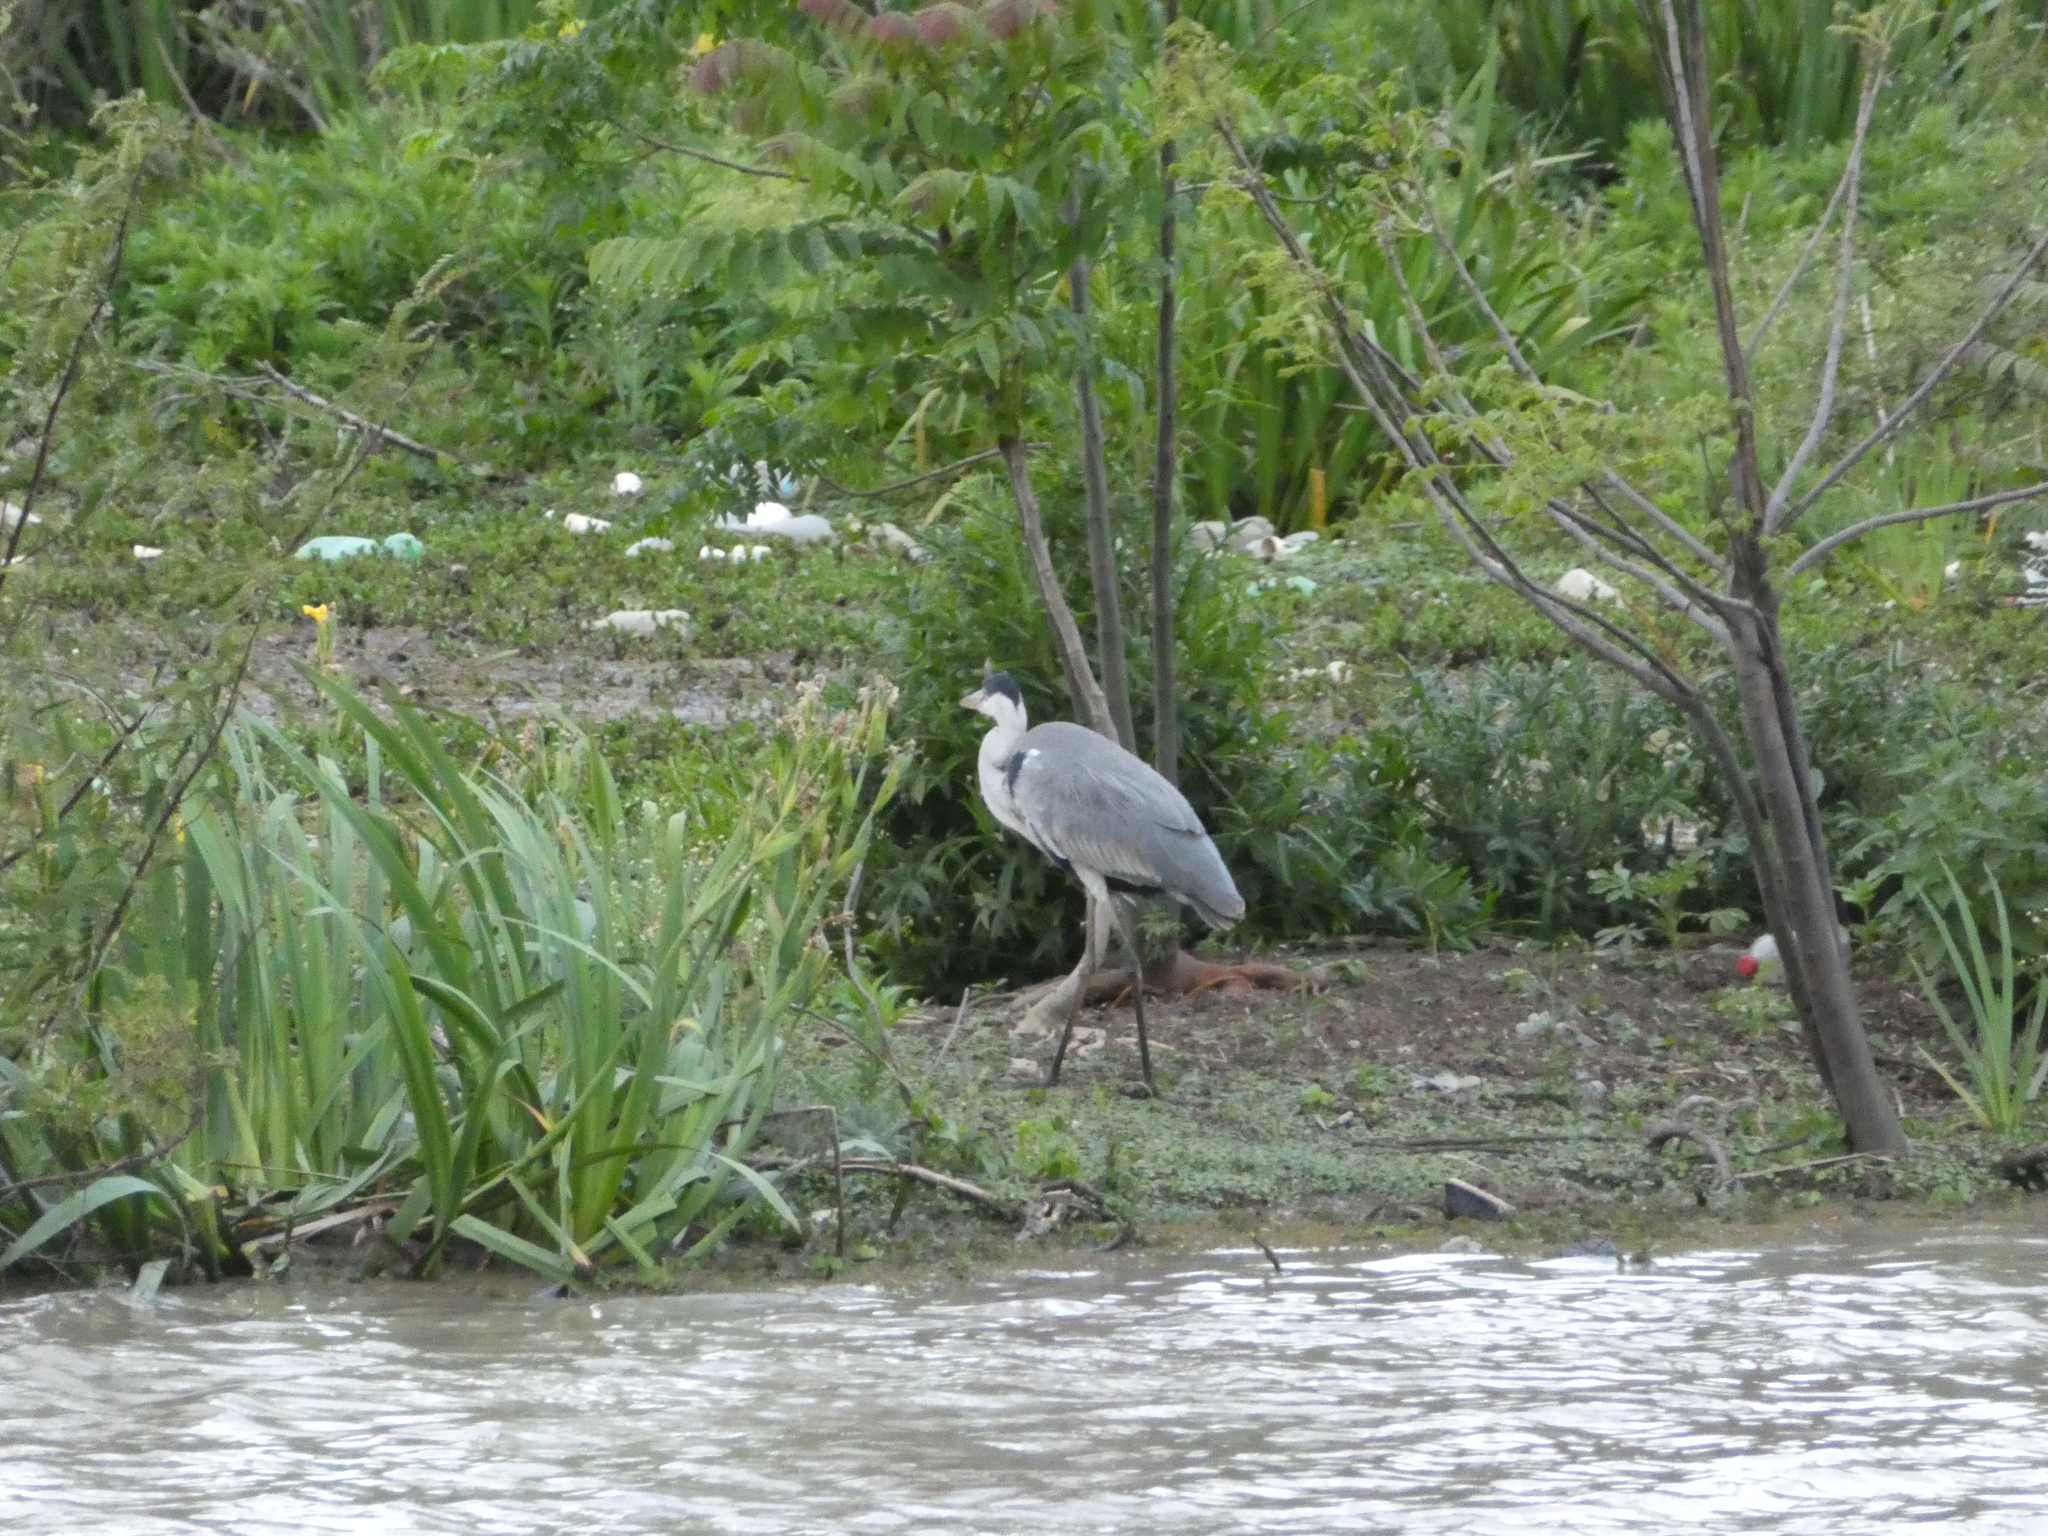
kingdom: Animalia
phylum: Chordata
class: Aves
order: Pelecaniformes
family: Ardeidae
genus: Ardea
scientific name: Ardea cocoi
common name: Cocoi heron
